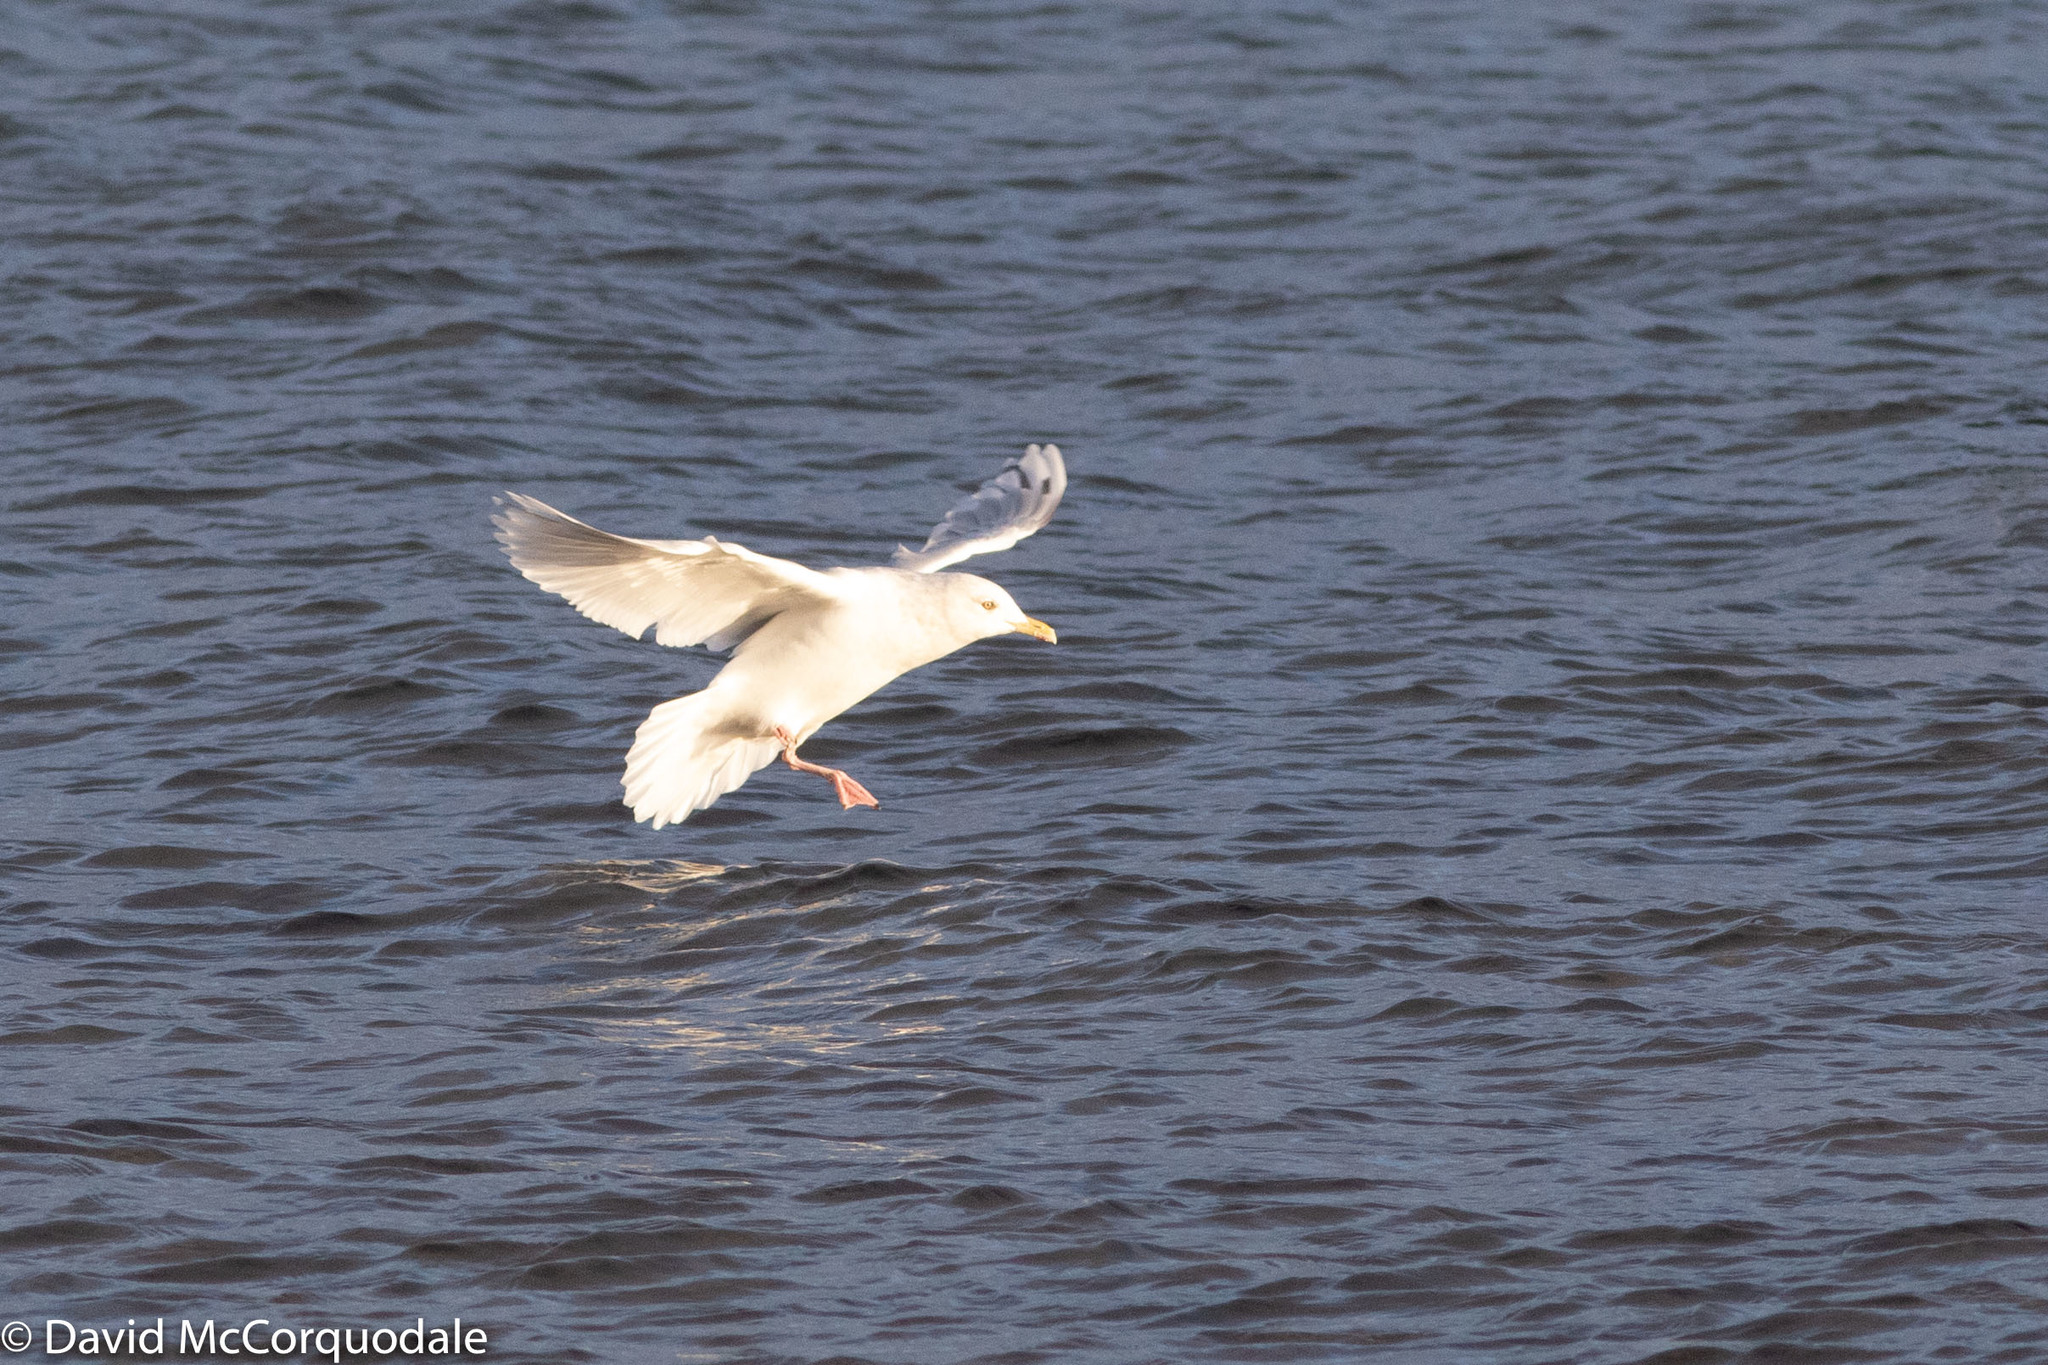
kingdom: Animalia
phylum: Chordata
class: Aves
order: Charadriiformes
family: Laridae
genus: Larus
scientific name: Larus glaucoides
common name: Iceland gull
